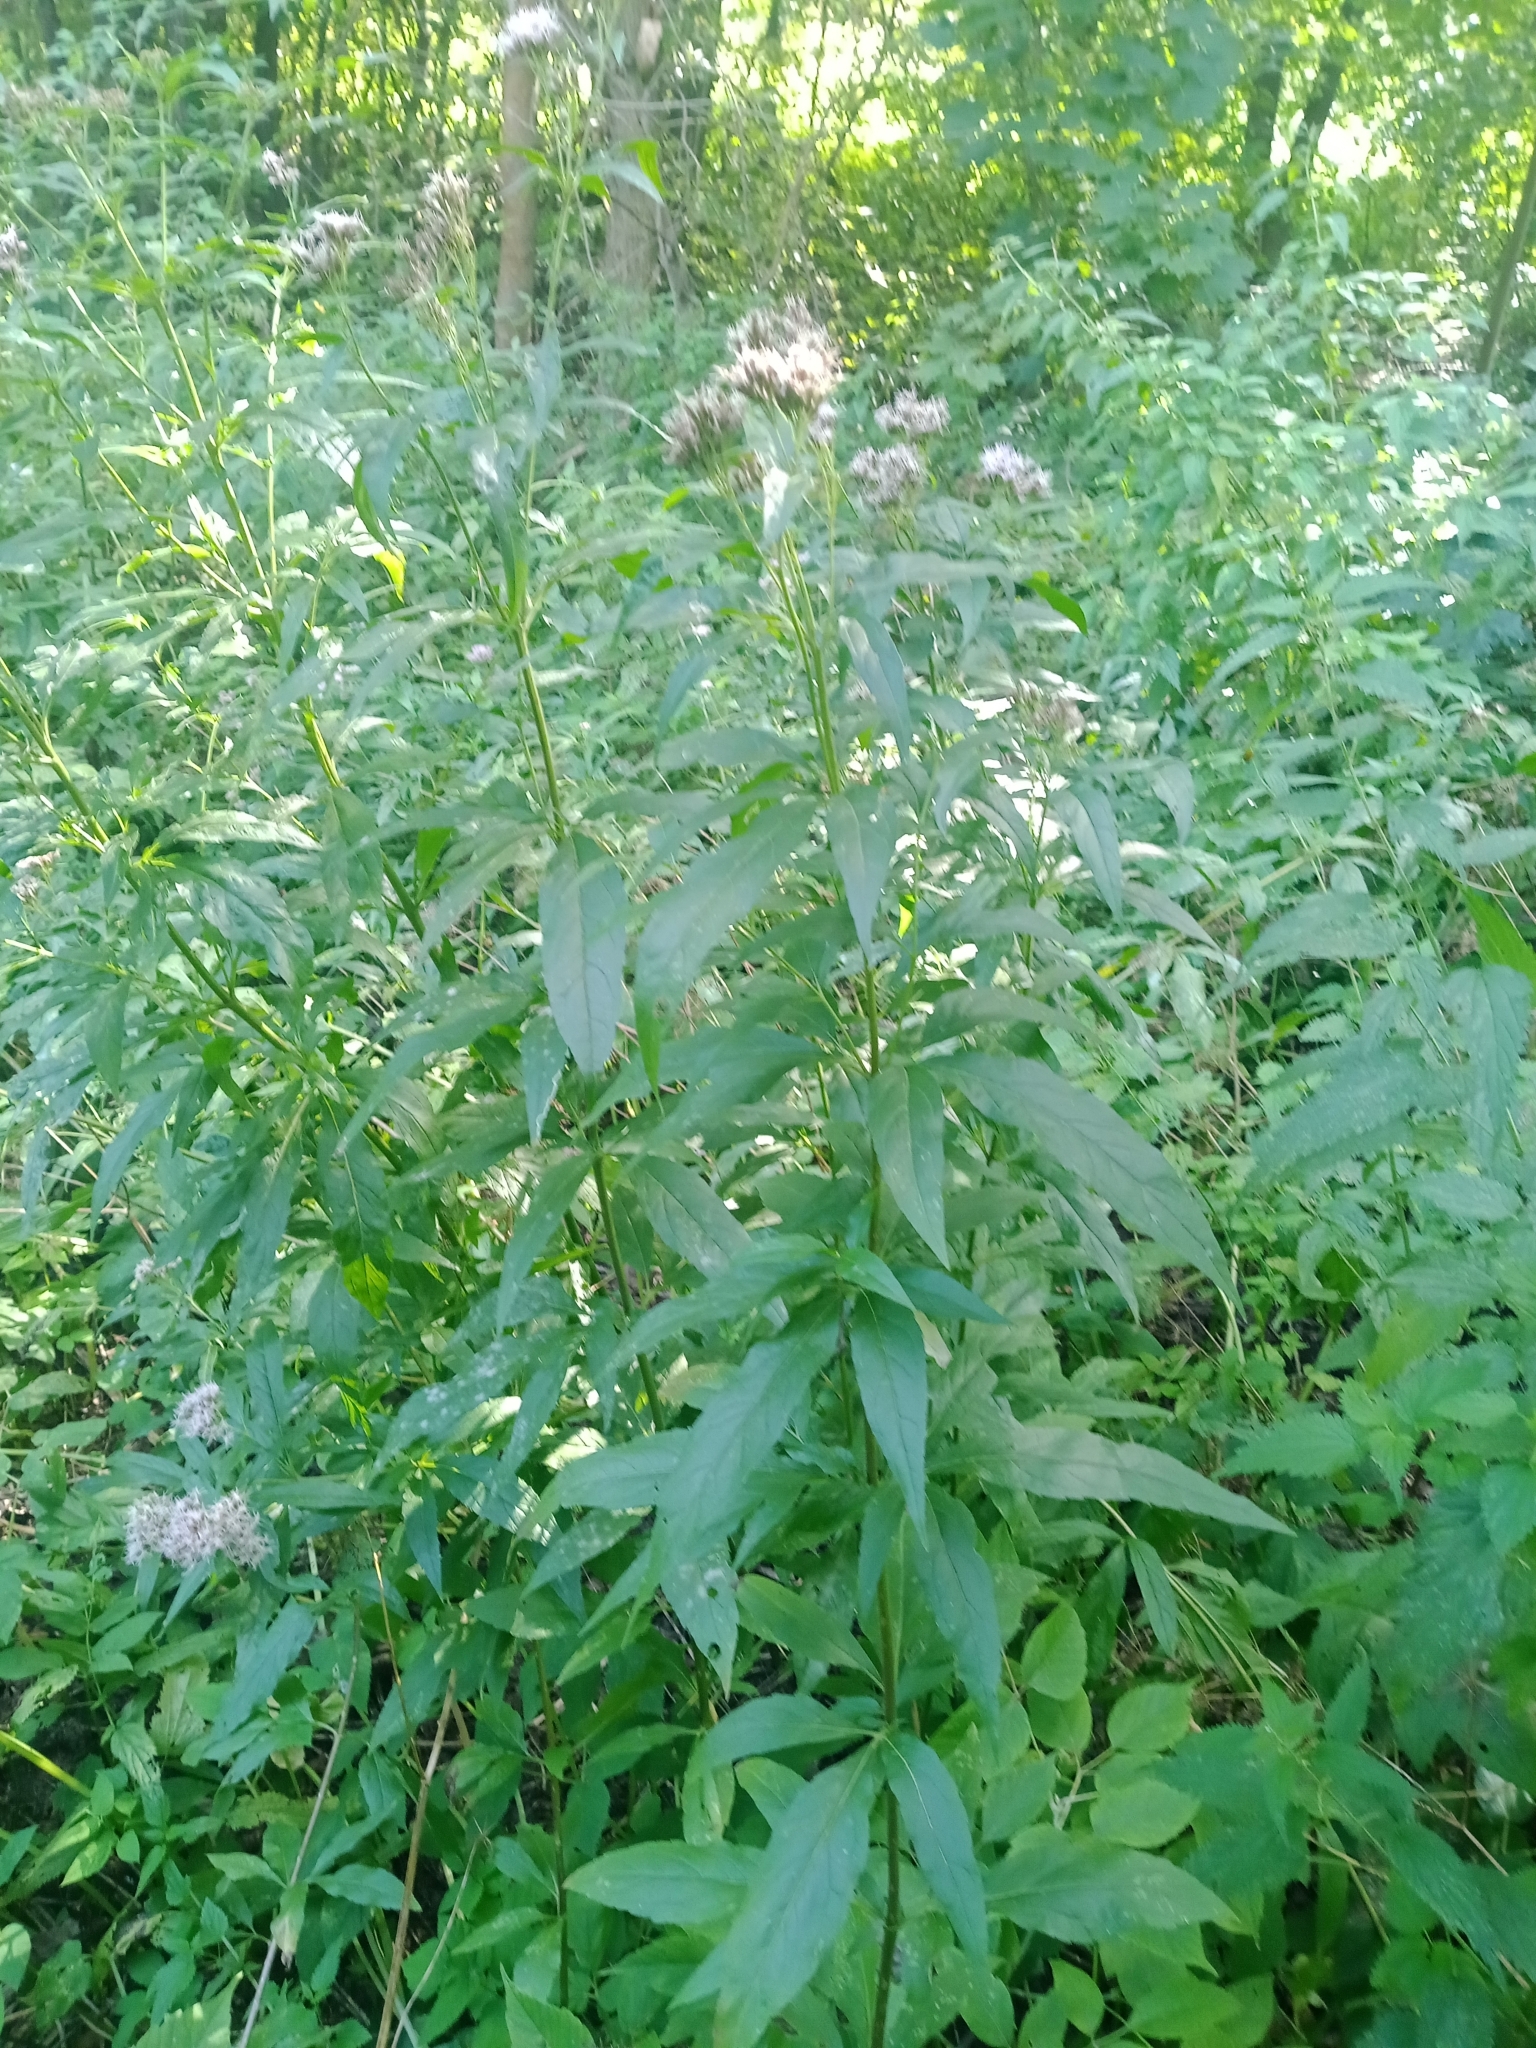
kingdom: Plantae
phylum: Tracheophyta
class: Magnoliopsida
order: Asterales
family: Asteraceae
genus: Eupatorium
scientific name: Eupatorium cannabinum
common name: Hemp-agrimony
